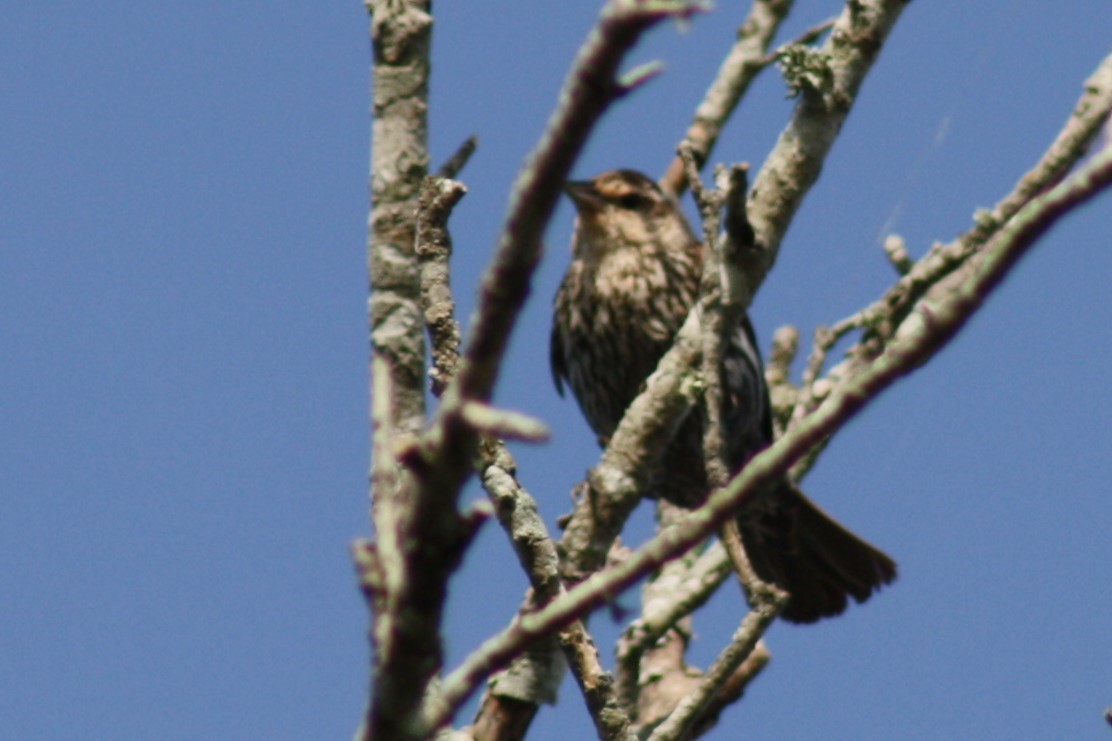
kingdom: Animalia
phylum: Chordata
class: Aves
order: Passeriformes
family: Icteridae
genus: Agelaius
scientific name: Agelaius phoeniceus
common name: Red-winged blackbird
